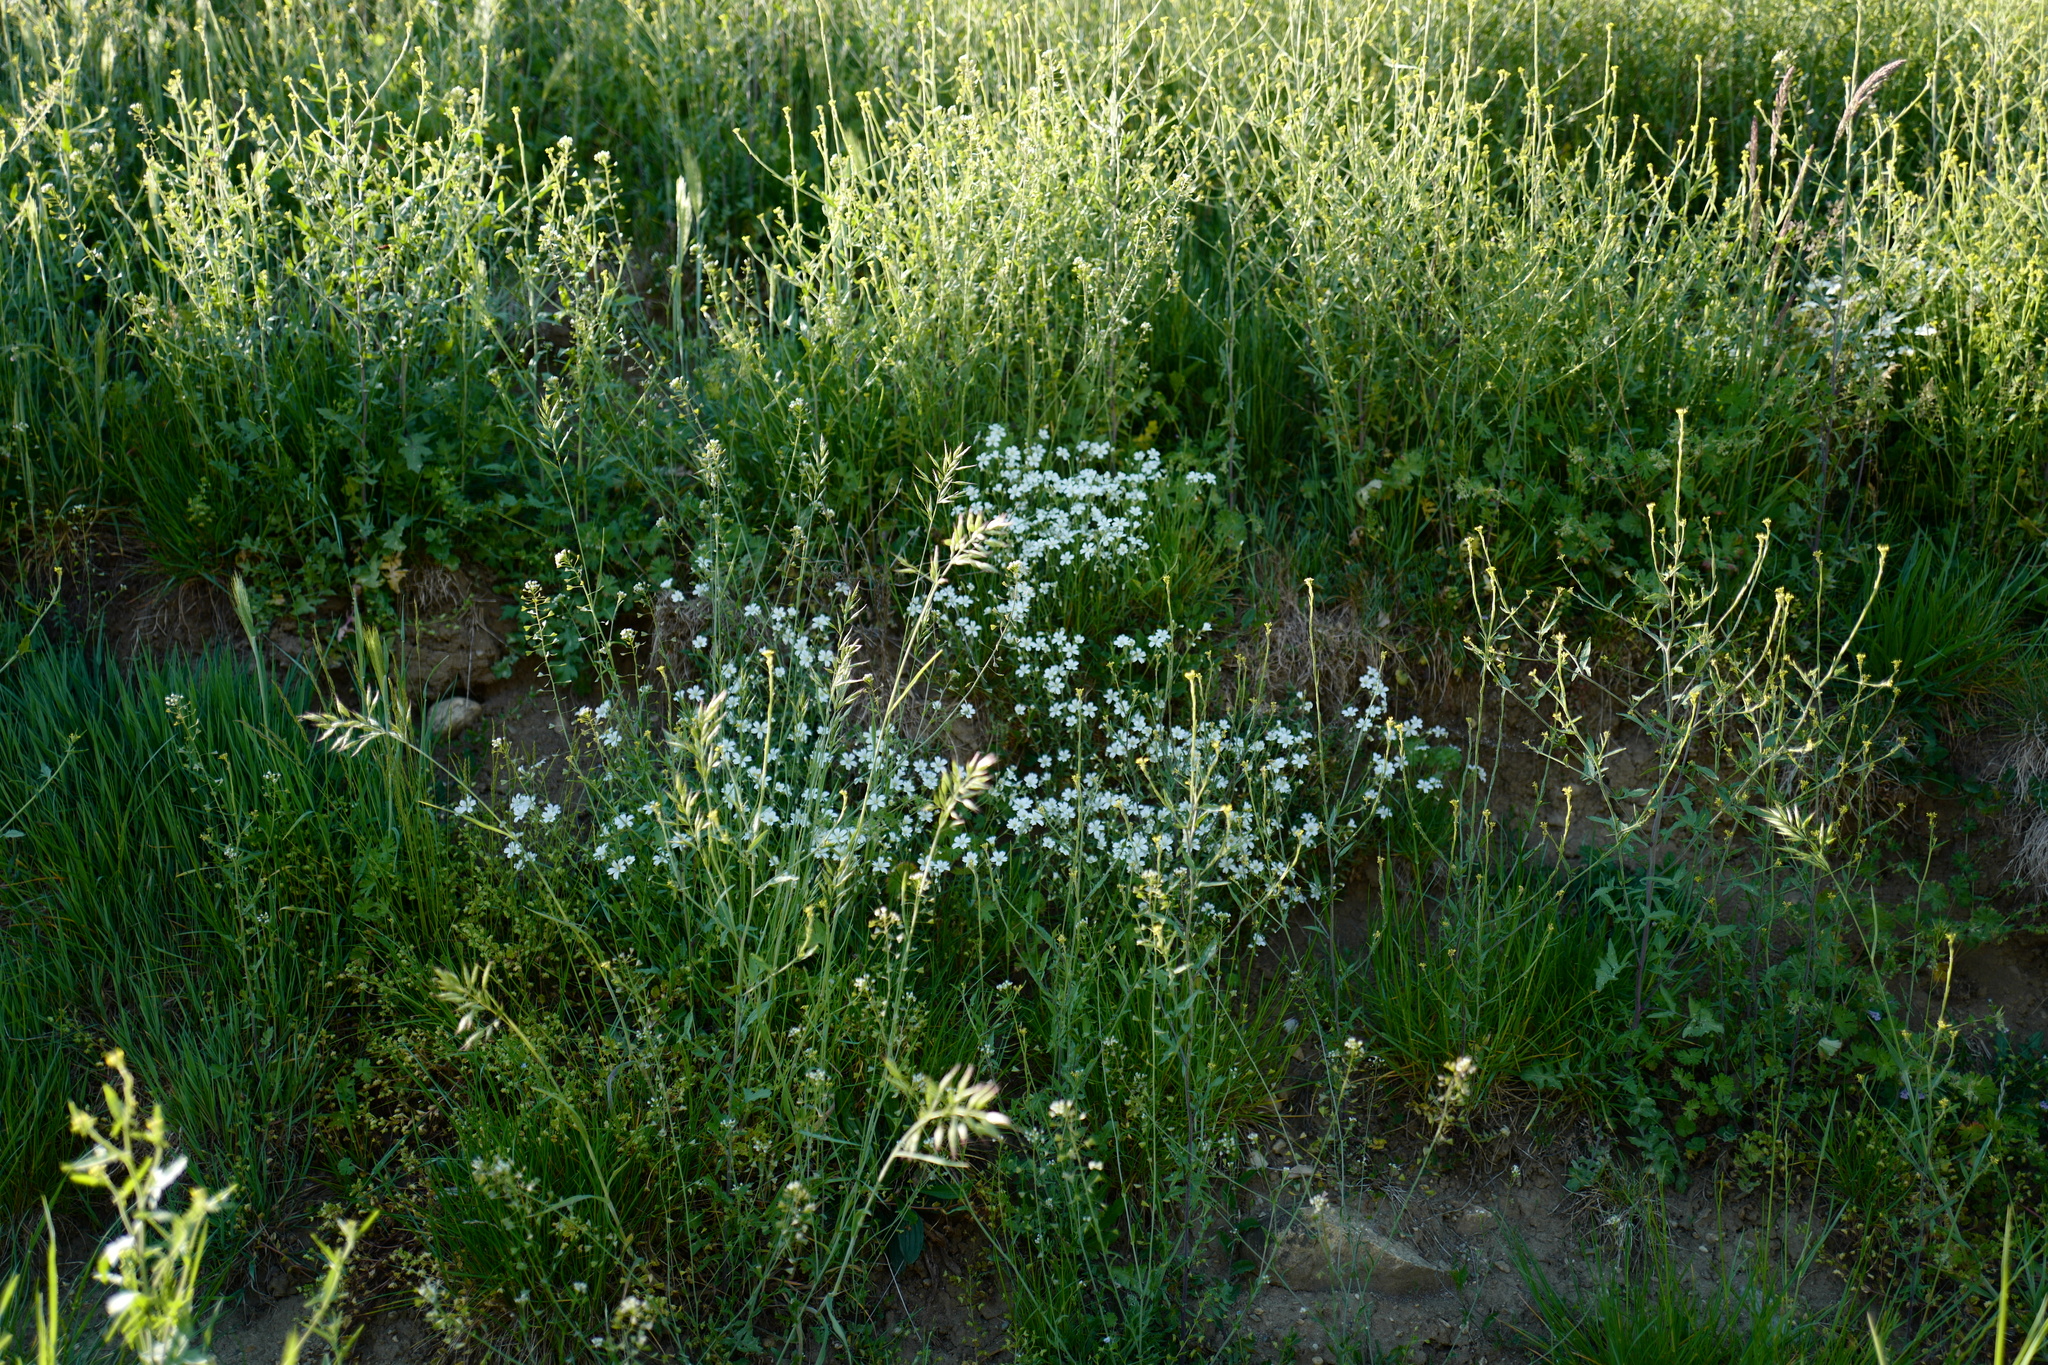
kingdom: Plantae
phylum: Tracheophyta
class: Magnoliopsida
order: Caryophyllales
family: Caryophyllaceae
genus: Cerastium
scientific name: Cerastium arvense
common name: Field mouse-ear
